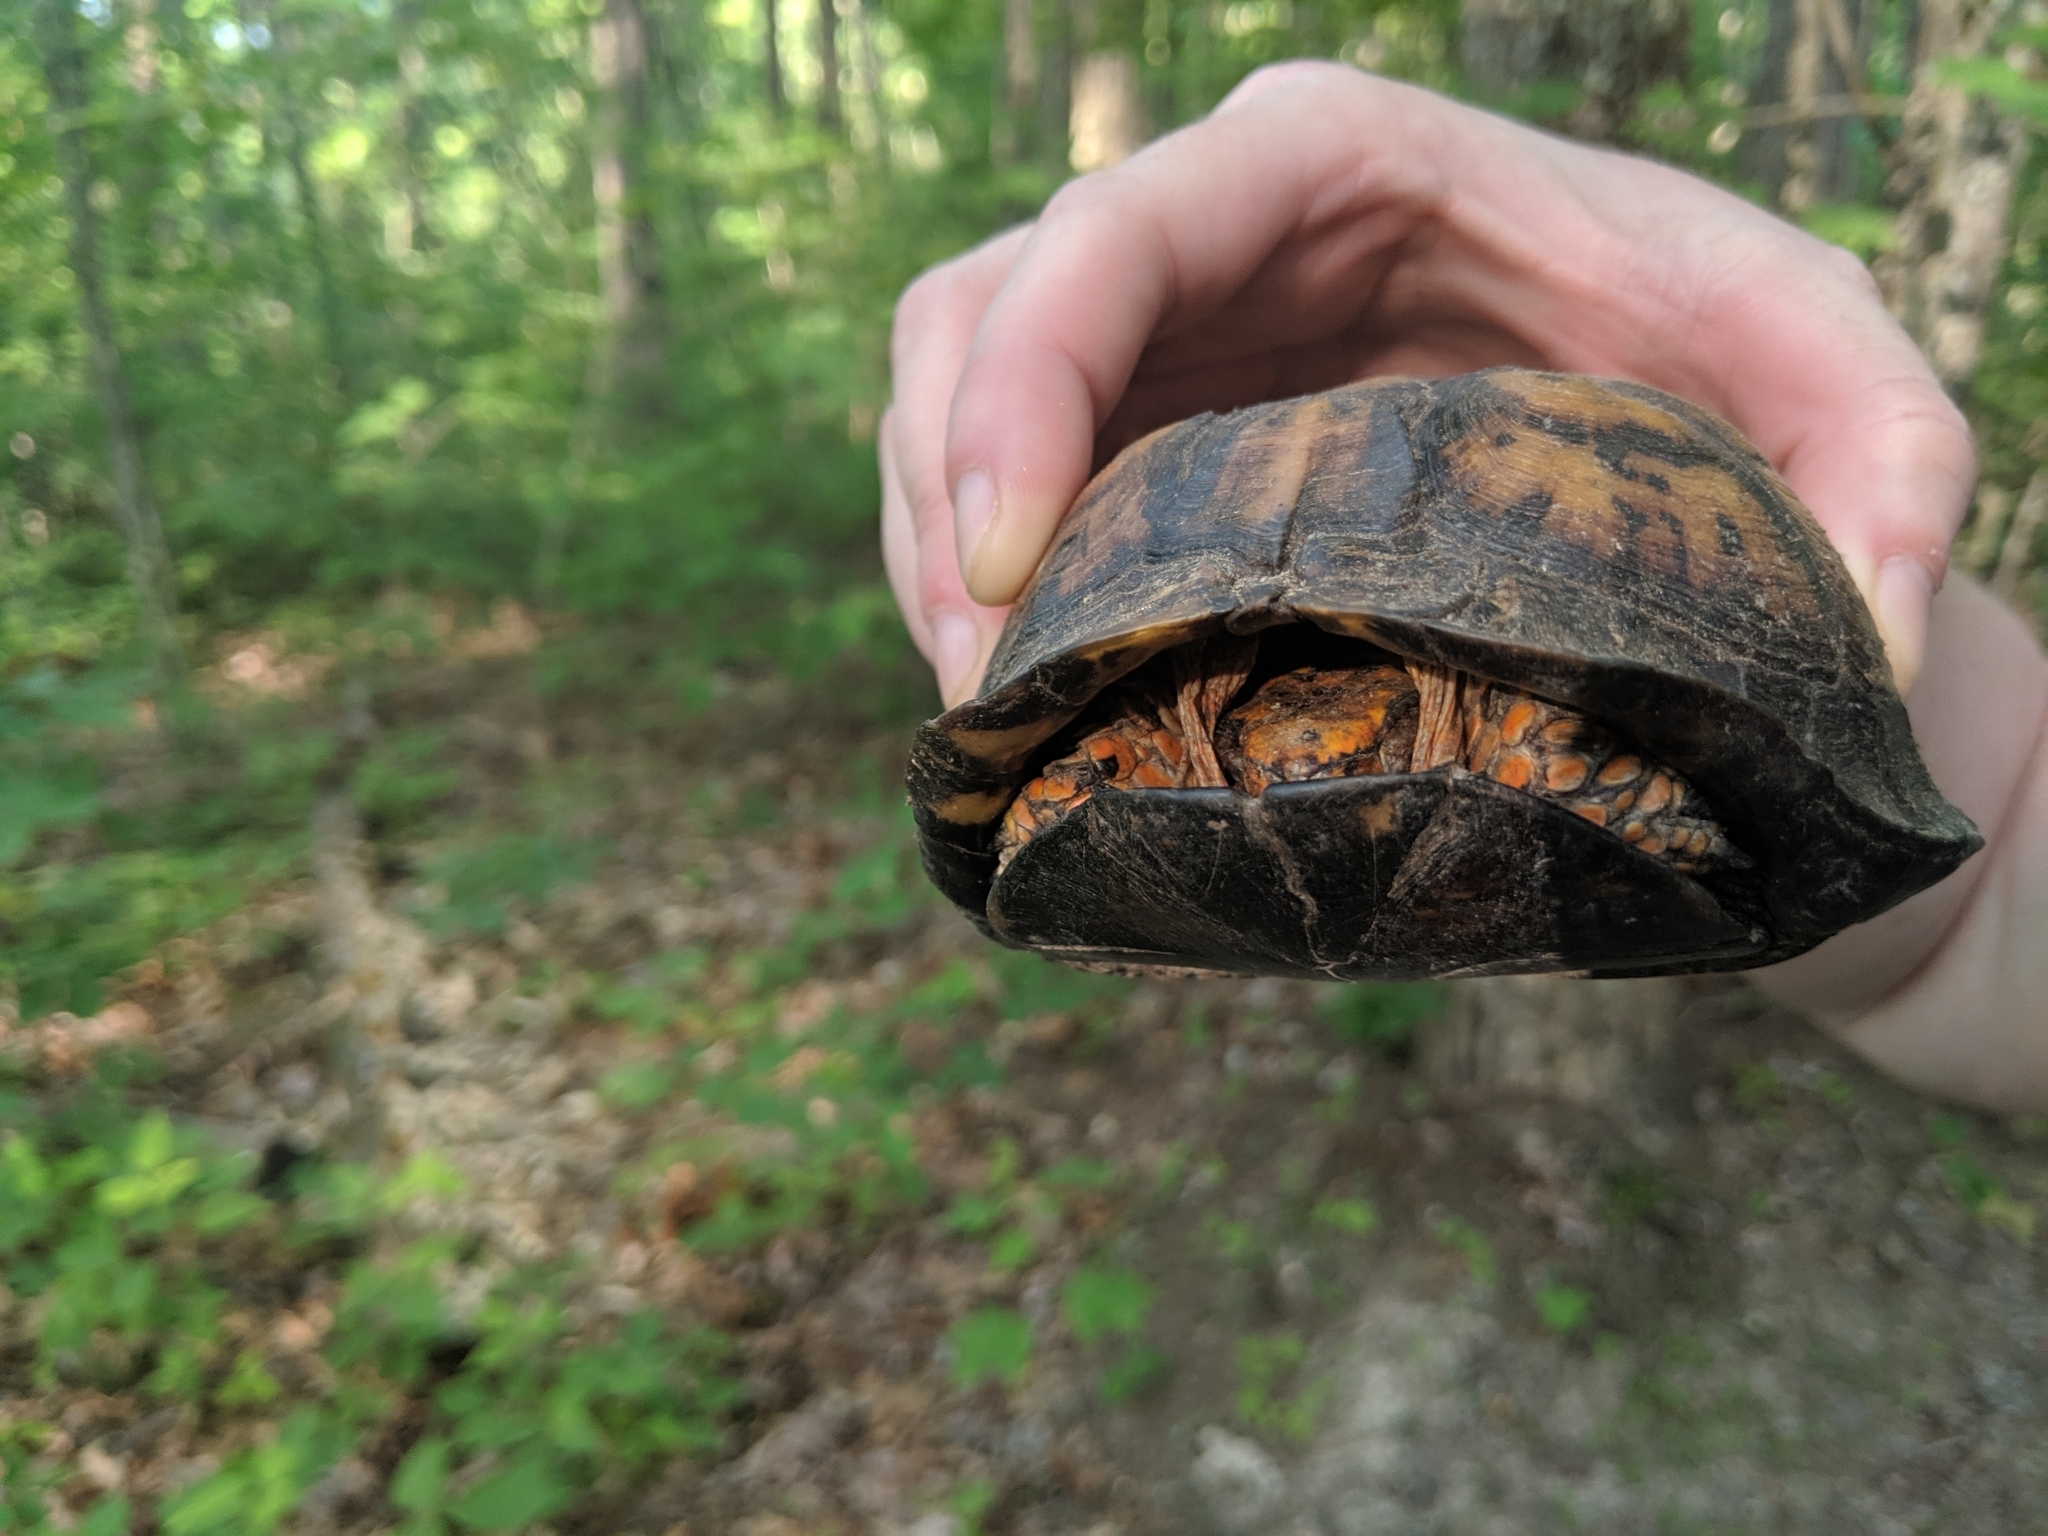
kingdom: Animalia
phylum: Chordata
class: Testudines
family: Emydidae
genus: Terrapene
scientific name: Terrapene carolina
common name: Common box turtle
